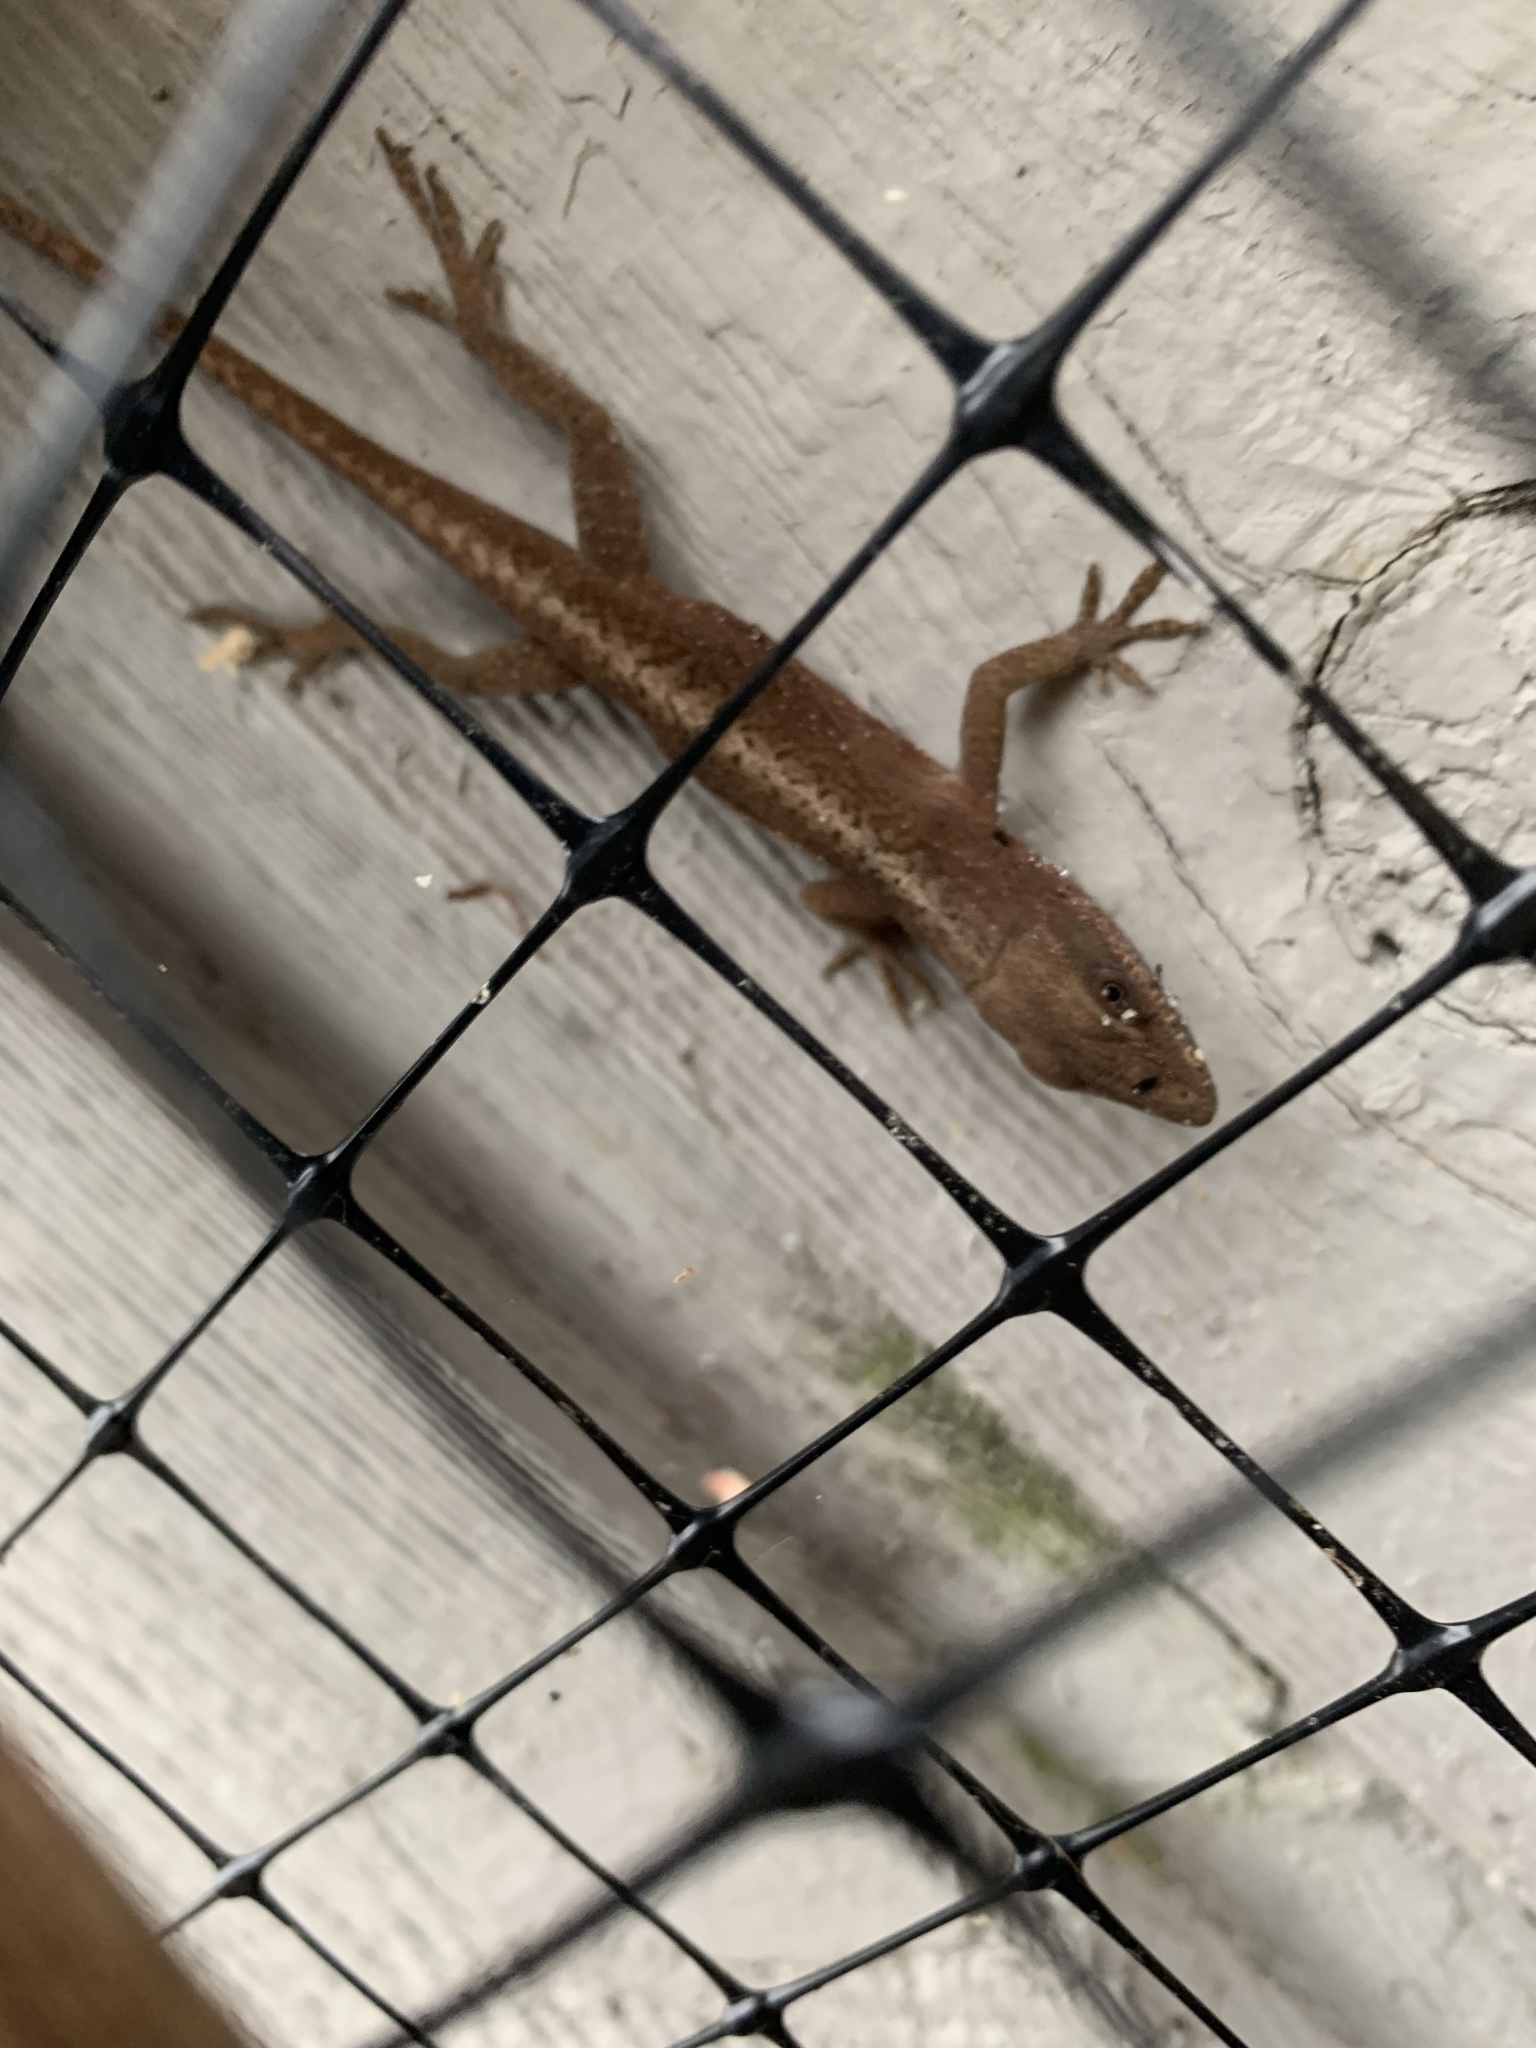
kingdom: Animalia
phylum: Chordata
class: Squamata
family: Dactyloidae
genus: Anolis
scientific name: Anolis carolinensis
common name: Green anole
